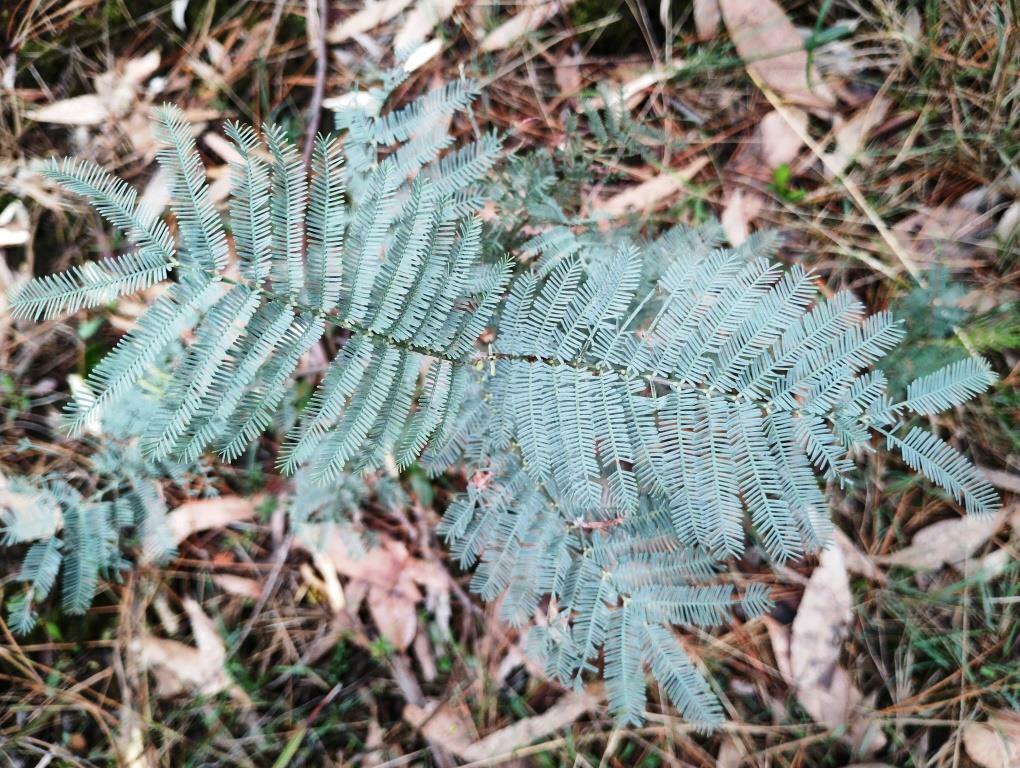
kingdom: Plantae
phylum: Tracheophyta
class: Magnoliopsida
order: Fabales
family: Fabaceae
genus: Acacia
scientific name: Acacia baileyana
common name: Cootamundra wattle
